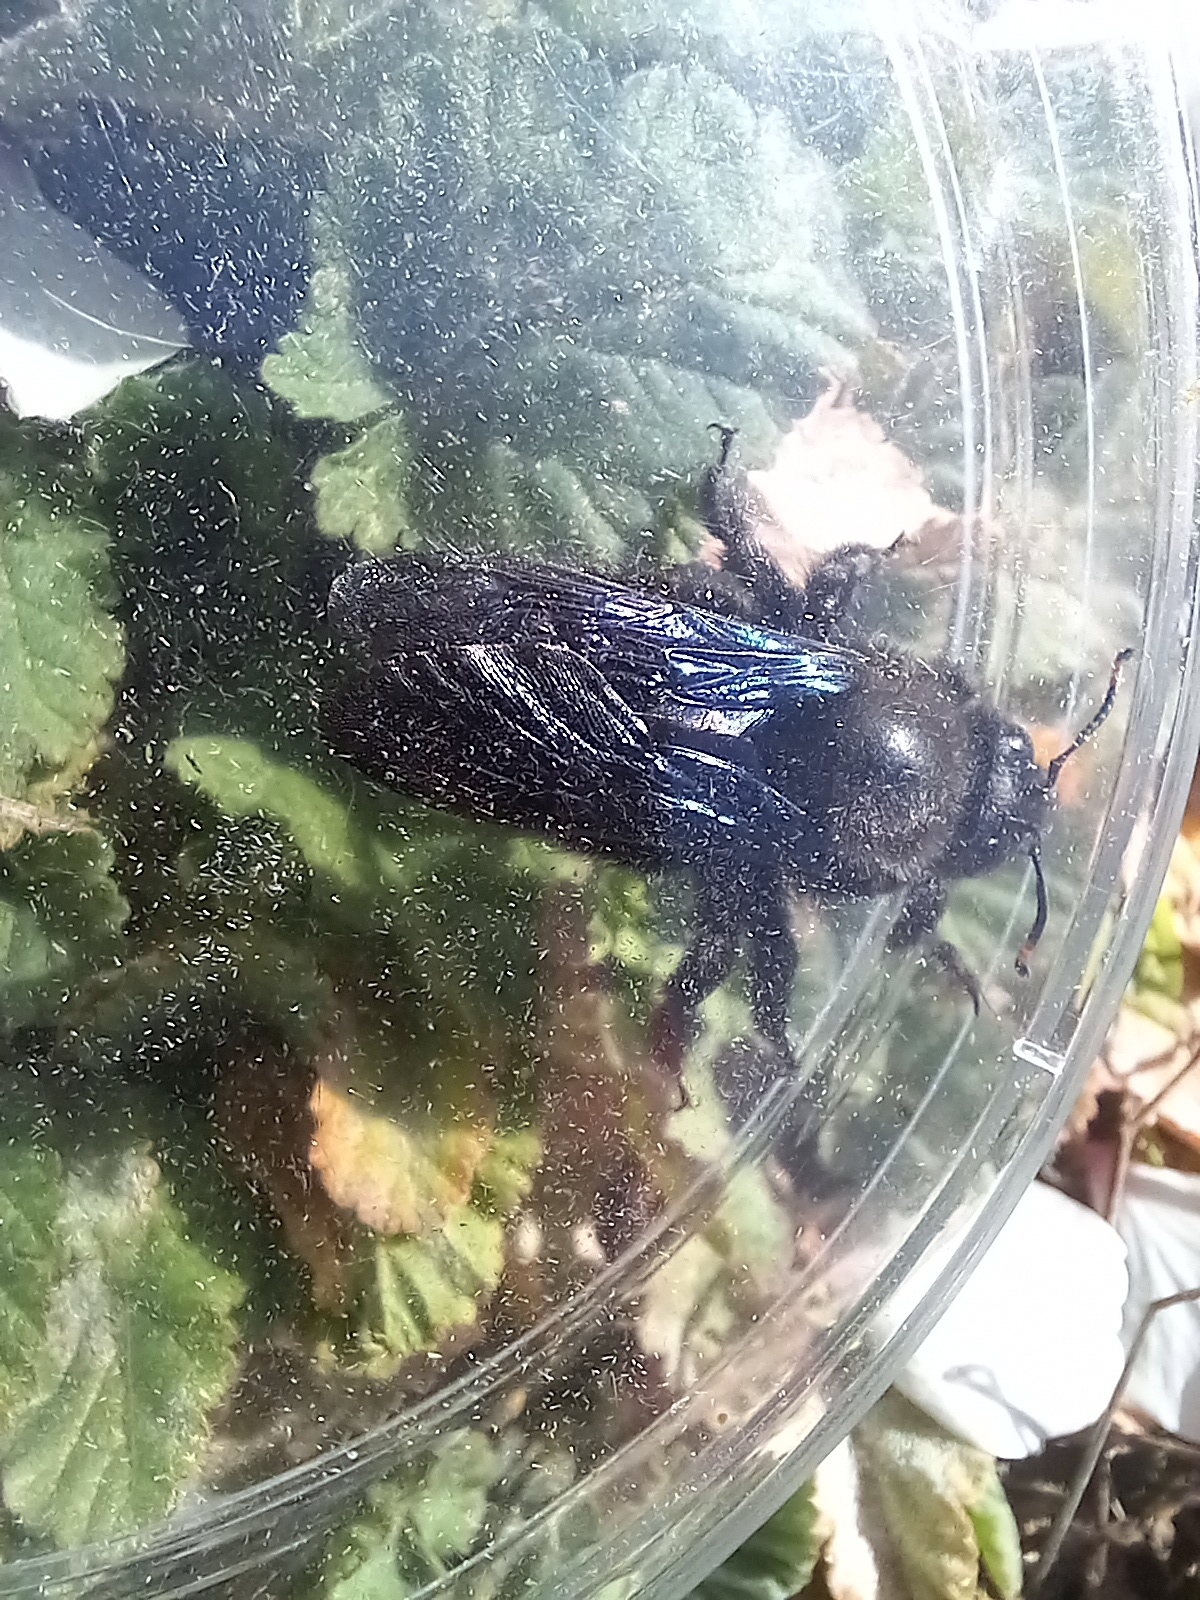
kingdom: Animalia
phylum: Arthropoda
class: Insecta
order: Hymenoptera
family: Apidae
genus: Xylocopa
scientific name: Xylocopa violacea
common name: Violet carpenter bee
